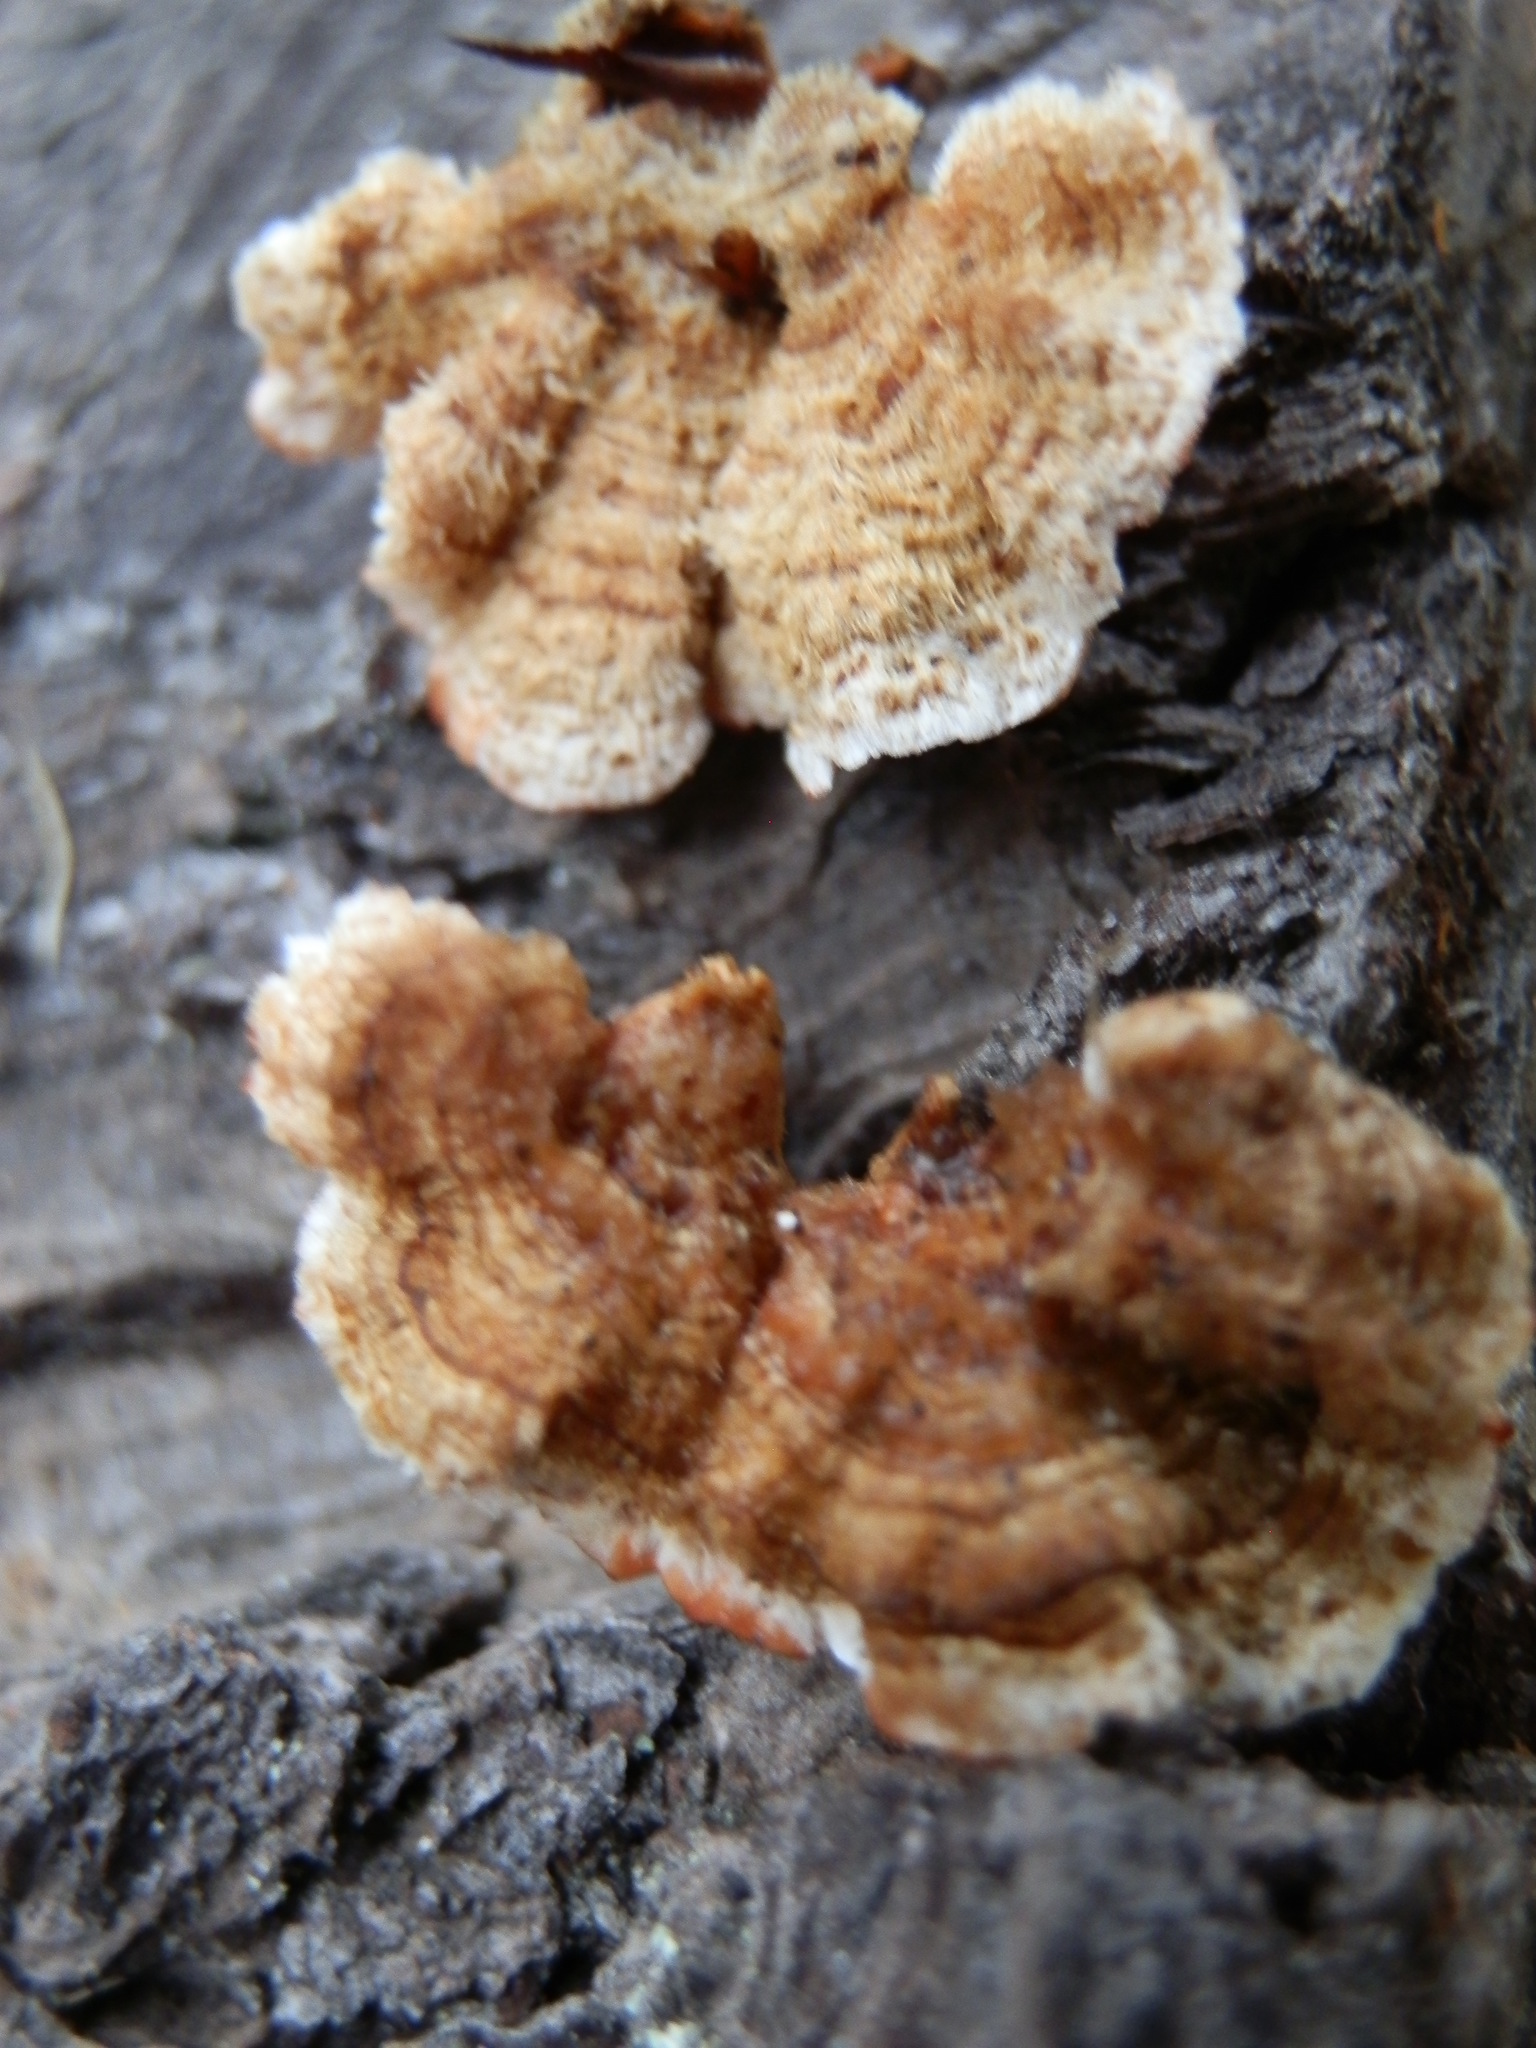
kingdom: Fungi
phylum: Basidiomycota
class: Agaricomycetes
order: Russulales
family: Stereaceae
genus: Stereum
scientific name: Stereum hirsutum
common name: Hairy curtain crust
